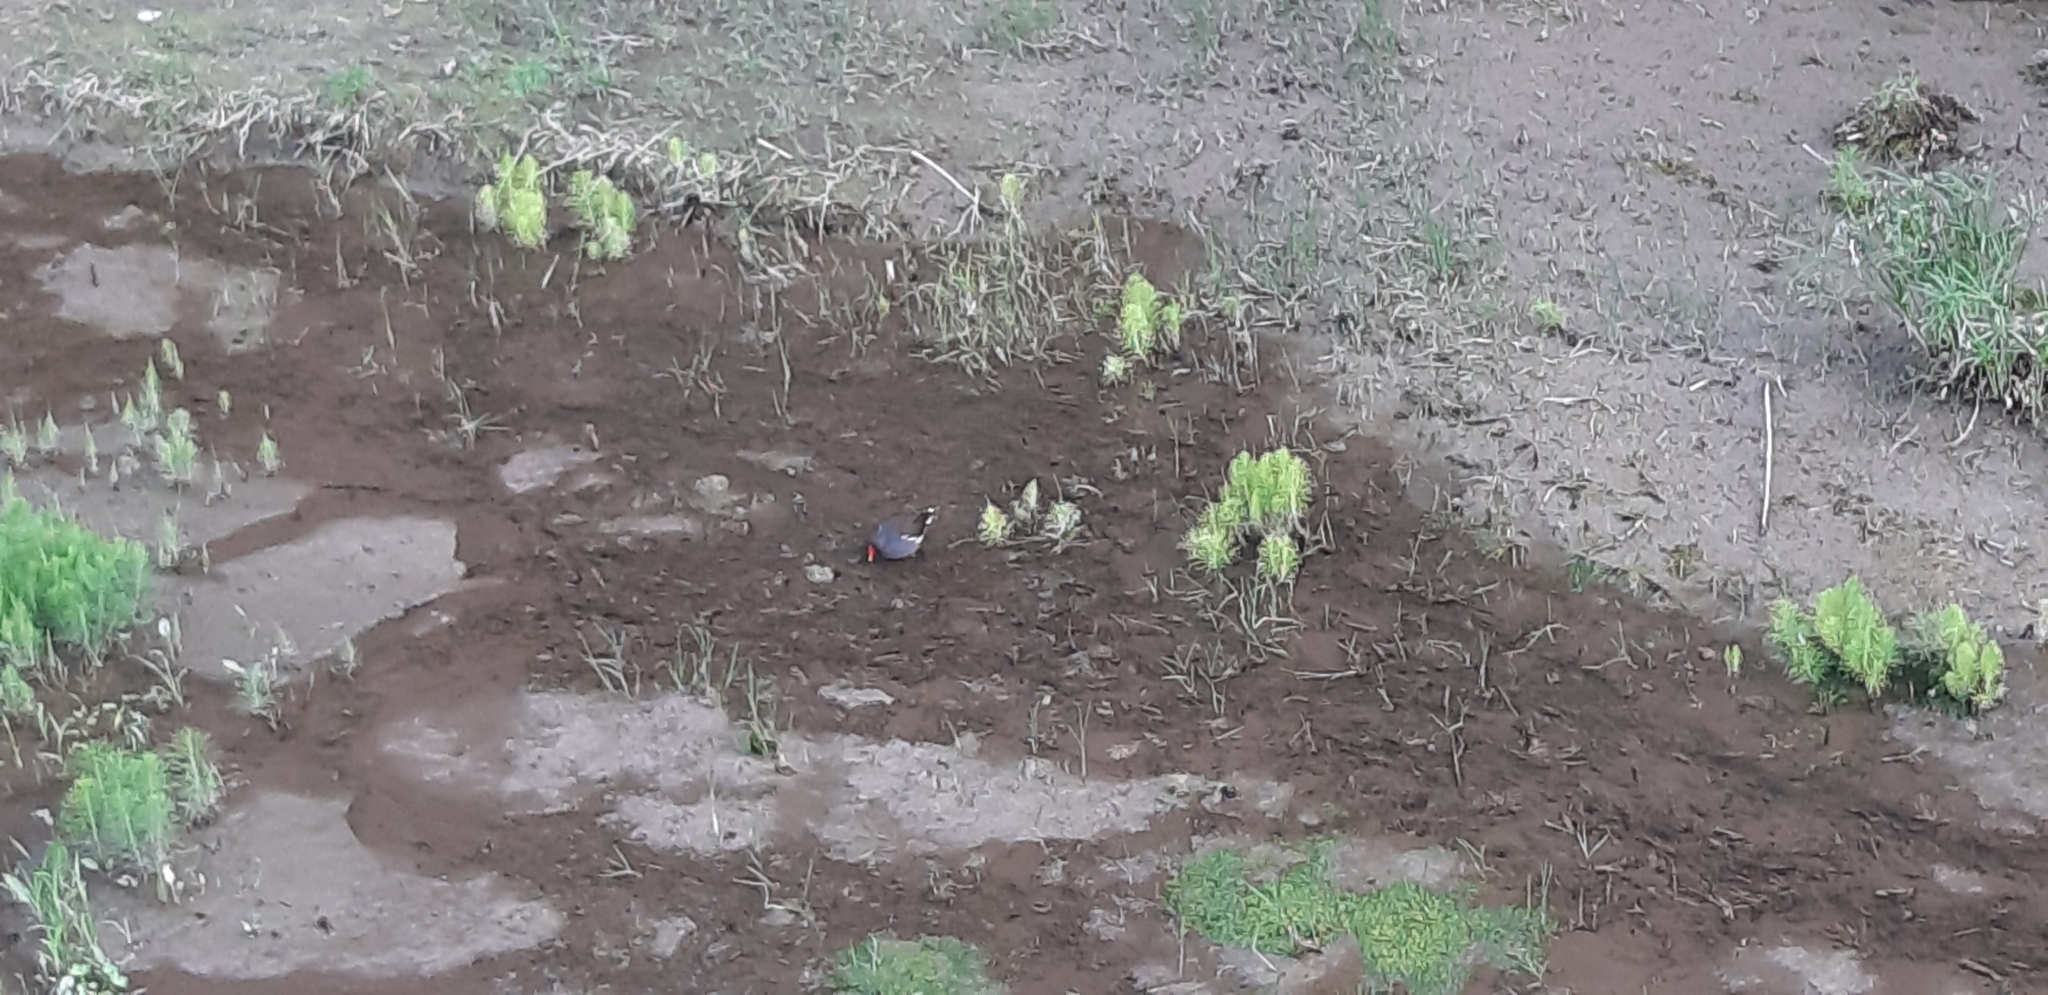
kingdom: Animalia
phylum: Chordata
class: Aves
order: Gruiformes
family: Rallidae
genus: Gallinula
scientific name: Gallinula chloropus
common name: Common moorhen
